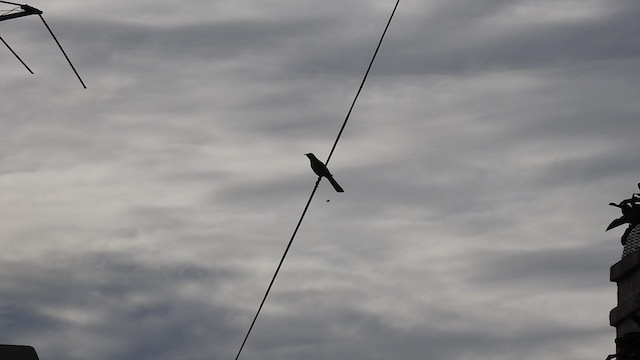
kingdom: Animalia
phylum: Chordata
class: Aves
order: Passeriformes
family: Mimidae
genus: Mimus
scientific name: Mimus polyglottos
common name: Northern mockingbird
